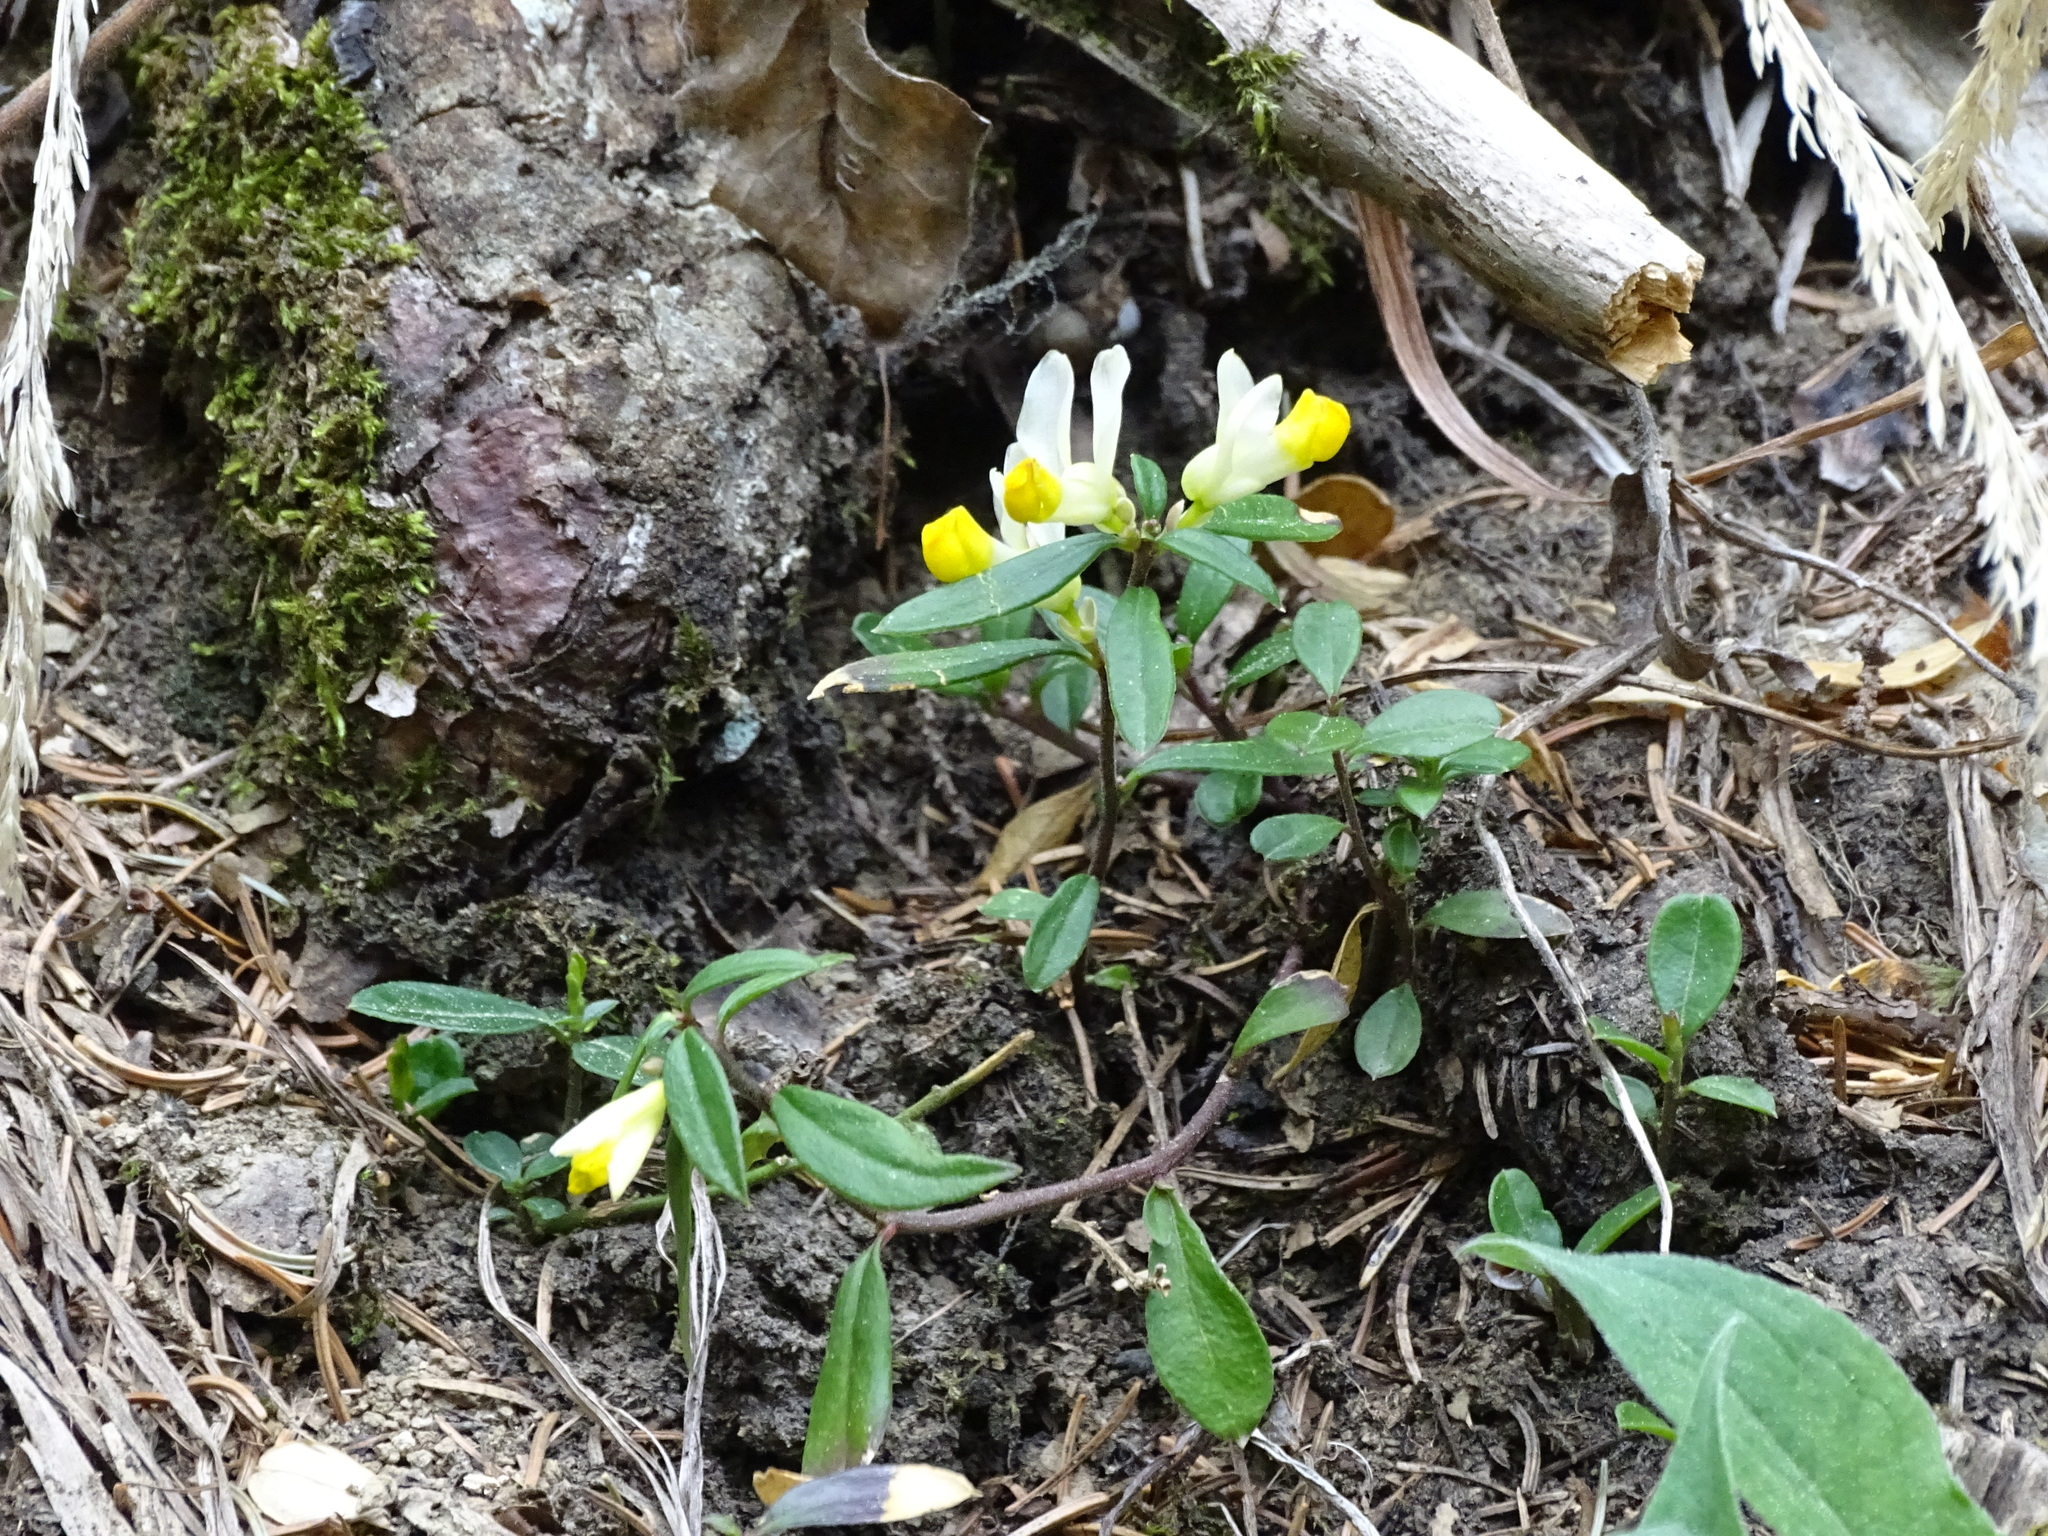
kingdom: Plantae
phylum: Tracheophyta
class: Magnoliopsida
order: Fabales
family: Polygalaceae
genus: Polygaloides
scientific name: Polygaloides chamaebuxus
